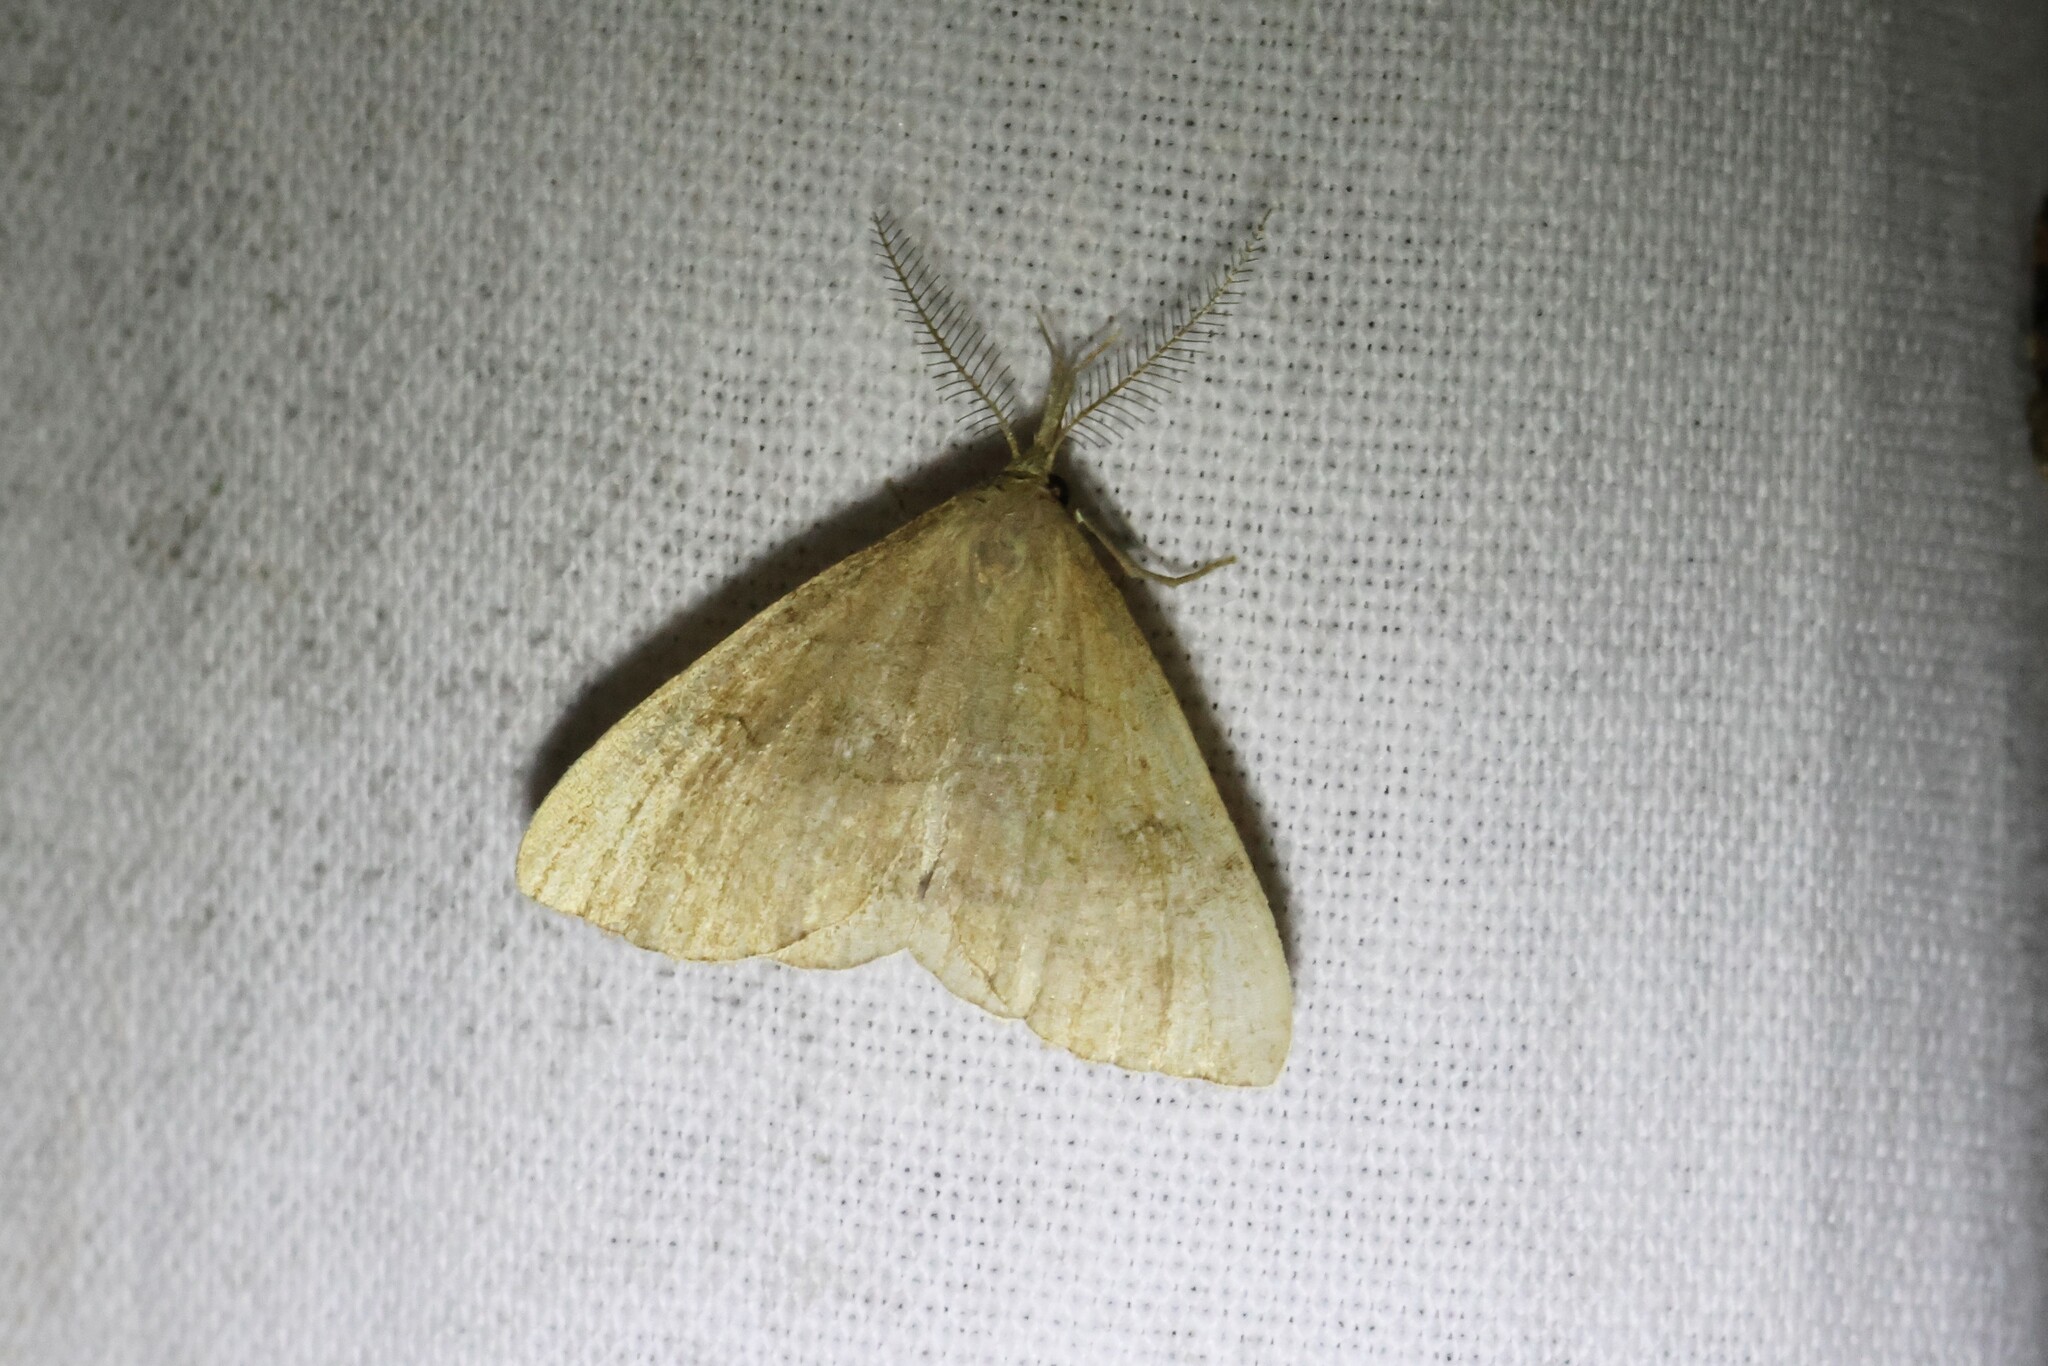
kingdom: Animalia
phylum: Arthropoda
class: Insecta
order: Lepidoptera
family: Erebidae
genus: Phalaenostola
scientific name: Phalaenostola metonalis
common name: Pale phalaenostola moth
